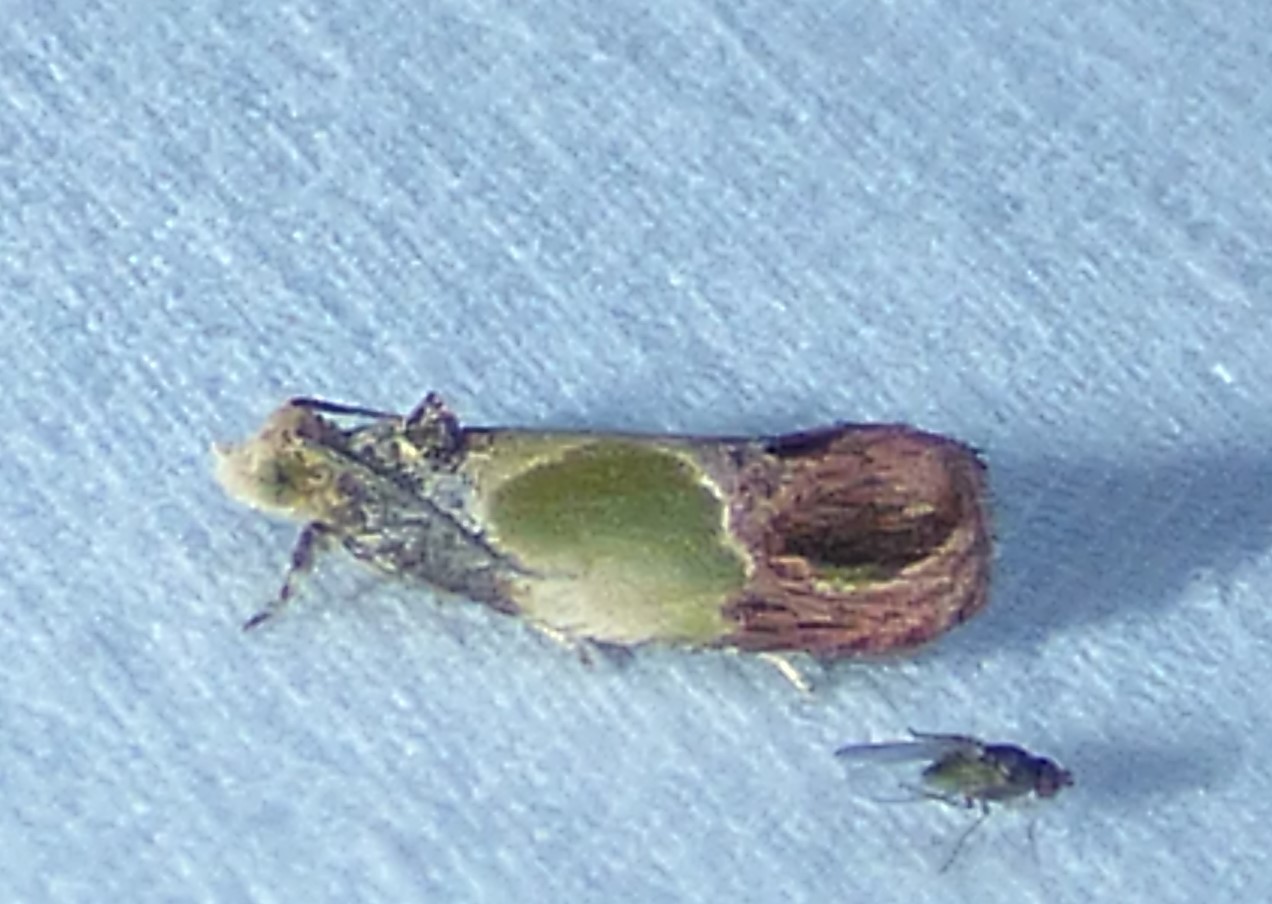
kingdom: Animalia
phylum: Arthropoda
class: Insecta
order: Lepidoptera
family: Tortricidae
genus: Eumarozia
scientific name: Eumarozia malachitana
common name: Sculptured moth
